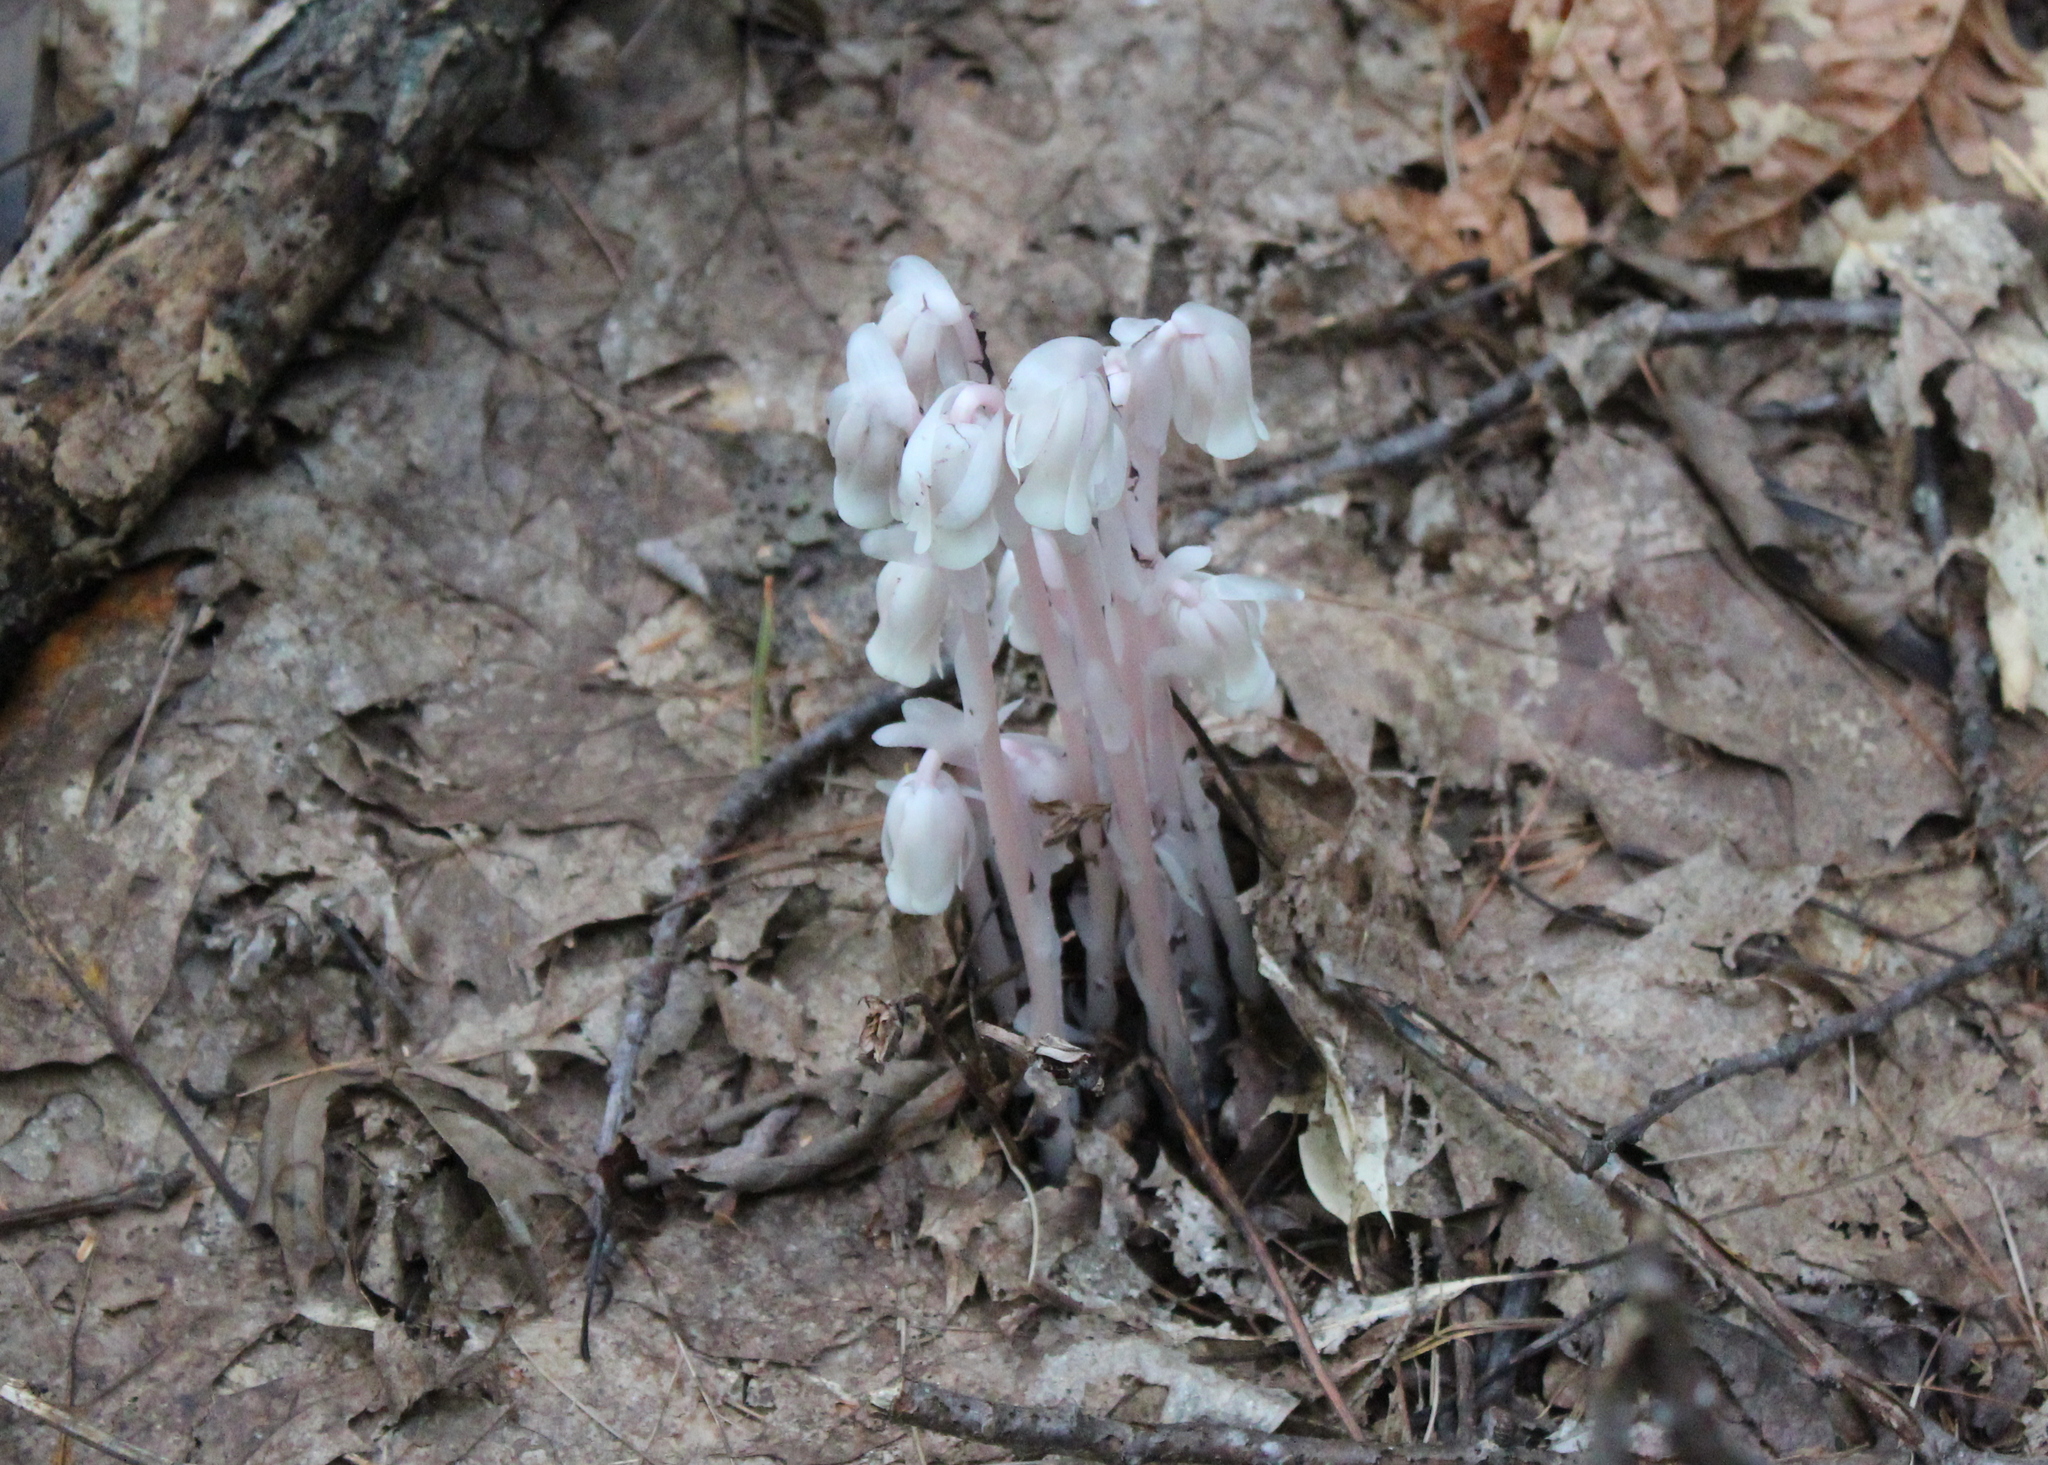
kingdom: Plantae
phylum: Tracheophyta
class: Magnoliopsida
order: Ericales
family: Ericaceae
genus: Monotropa
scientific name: Monotropa uniflora
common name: Convulsion root
